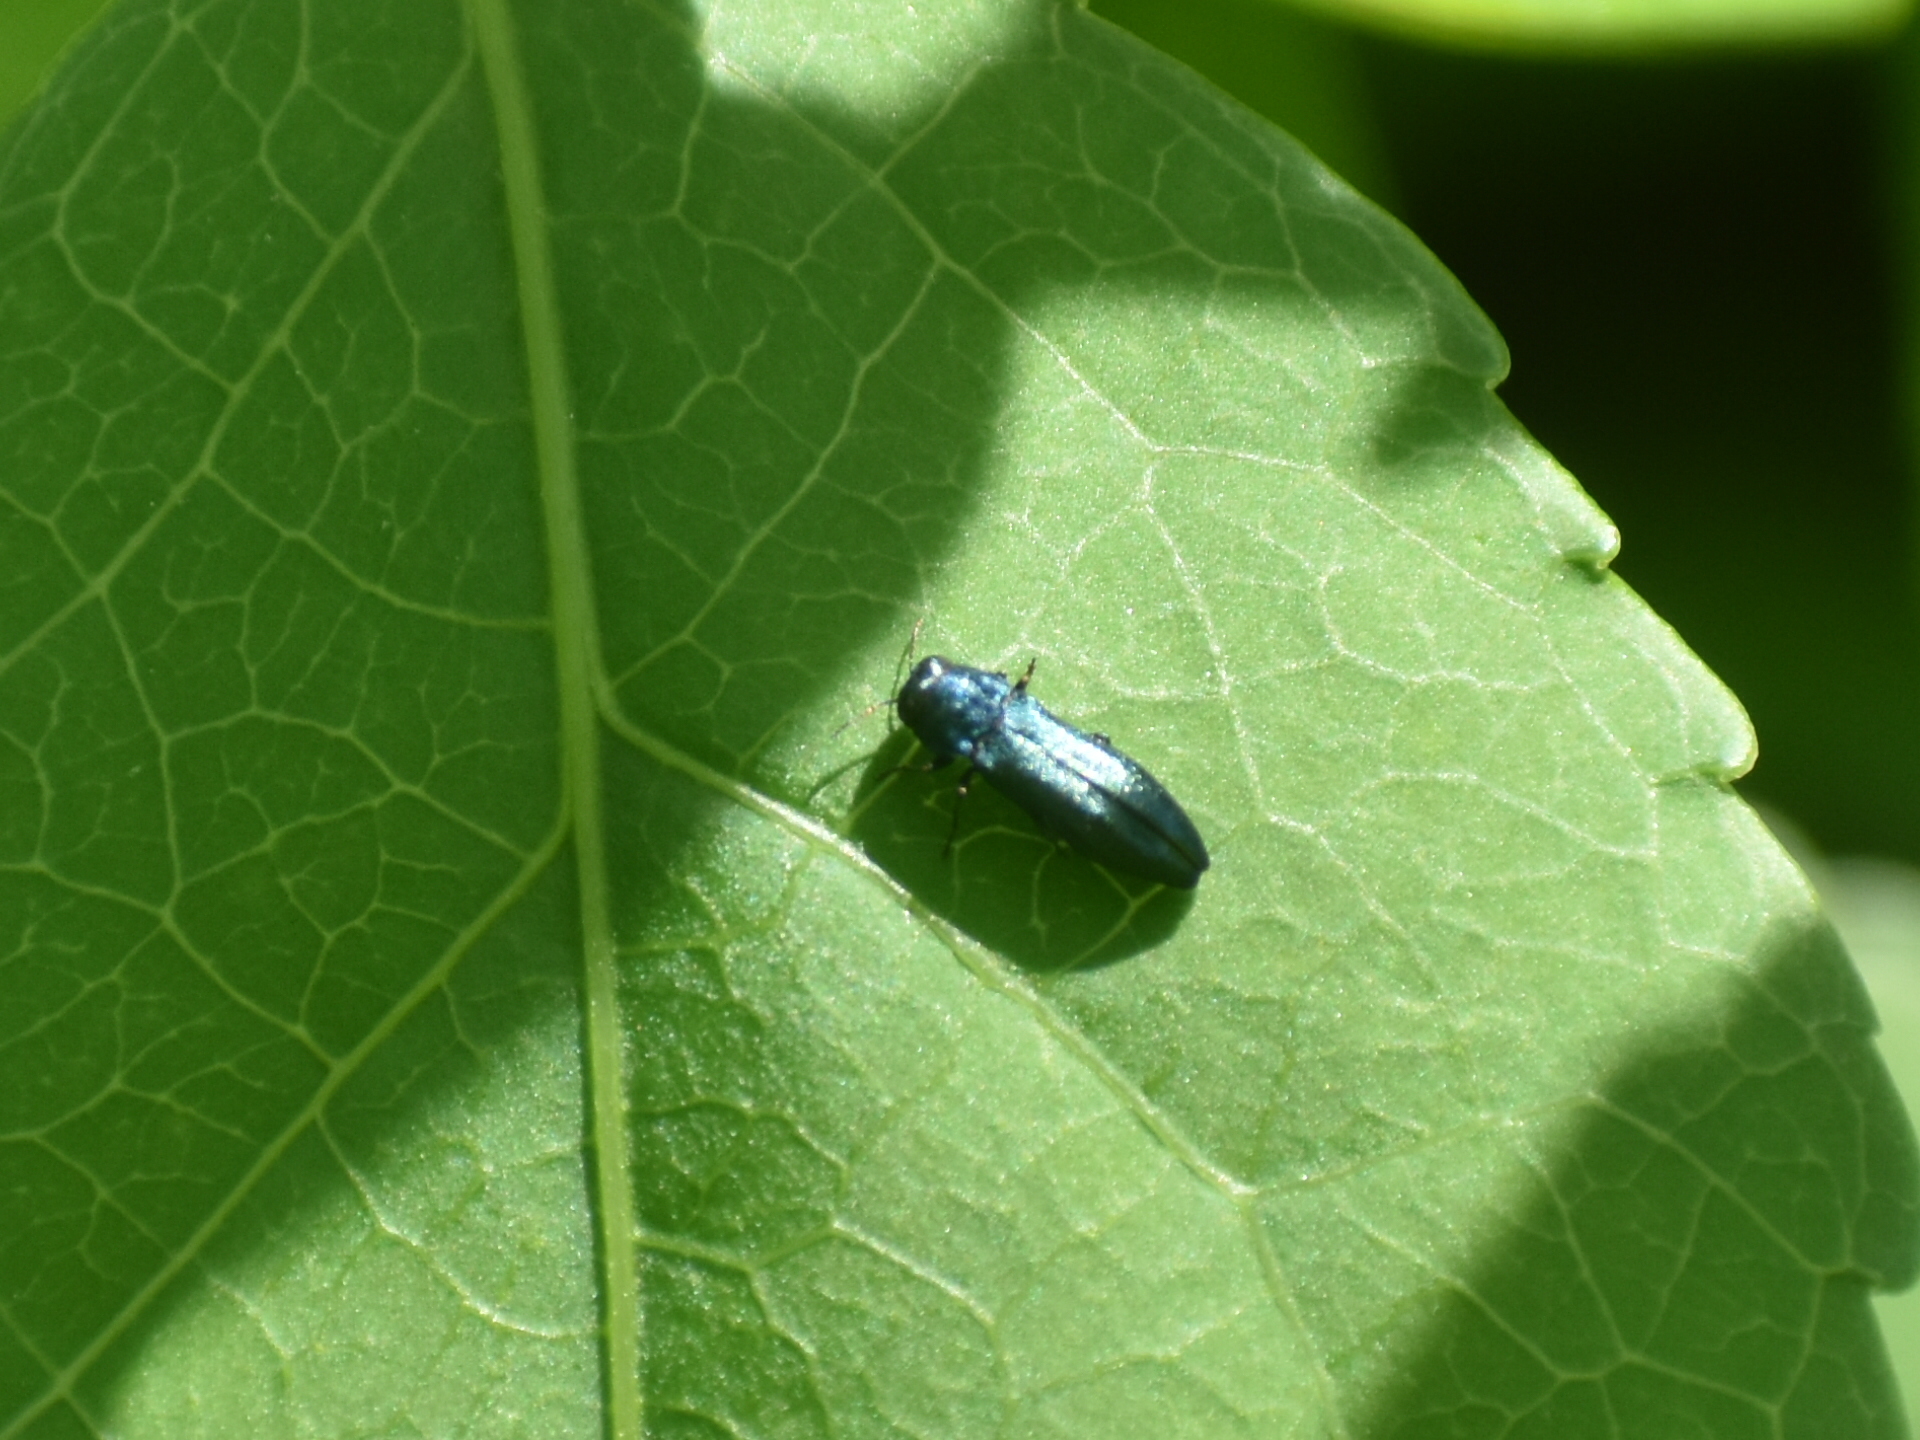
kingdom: Animalia
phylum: Arthropoda
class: Insecta
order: Coleoptera
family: Buprestidae
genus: Agrilus
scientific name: Agrilus cyanescens
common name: Bluish borer beetle
